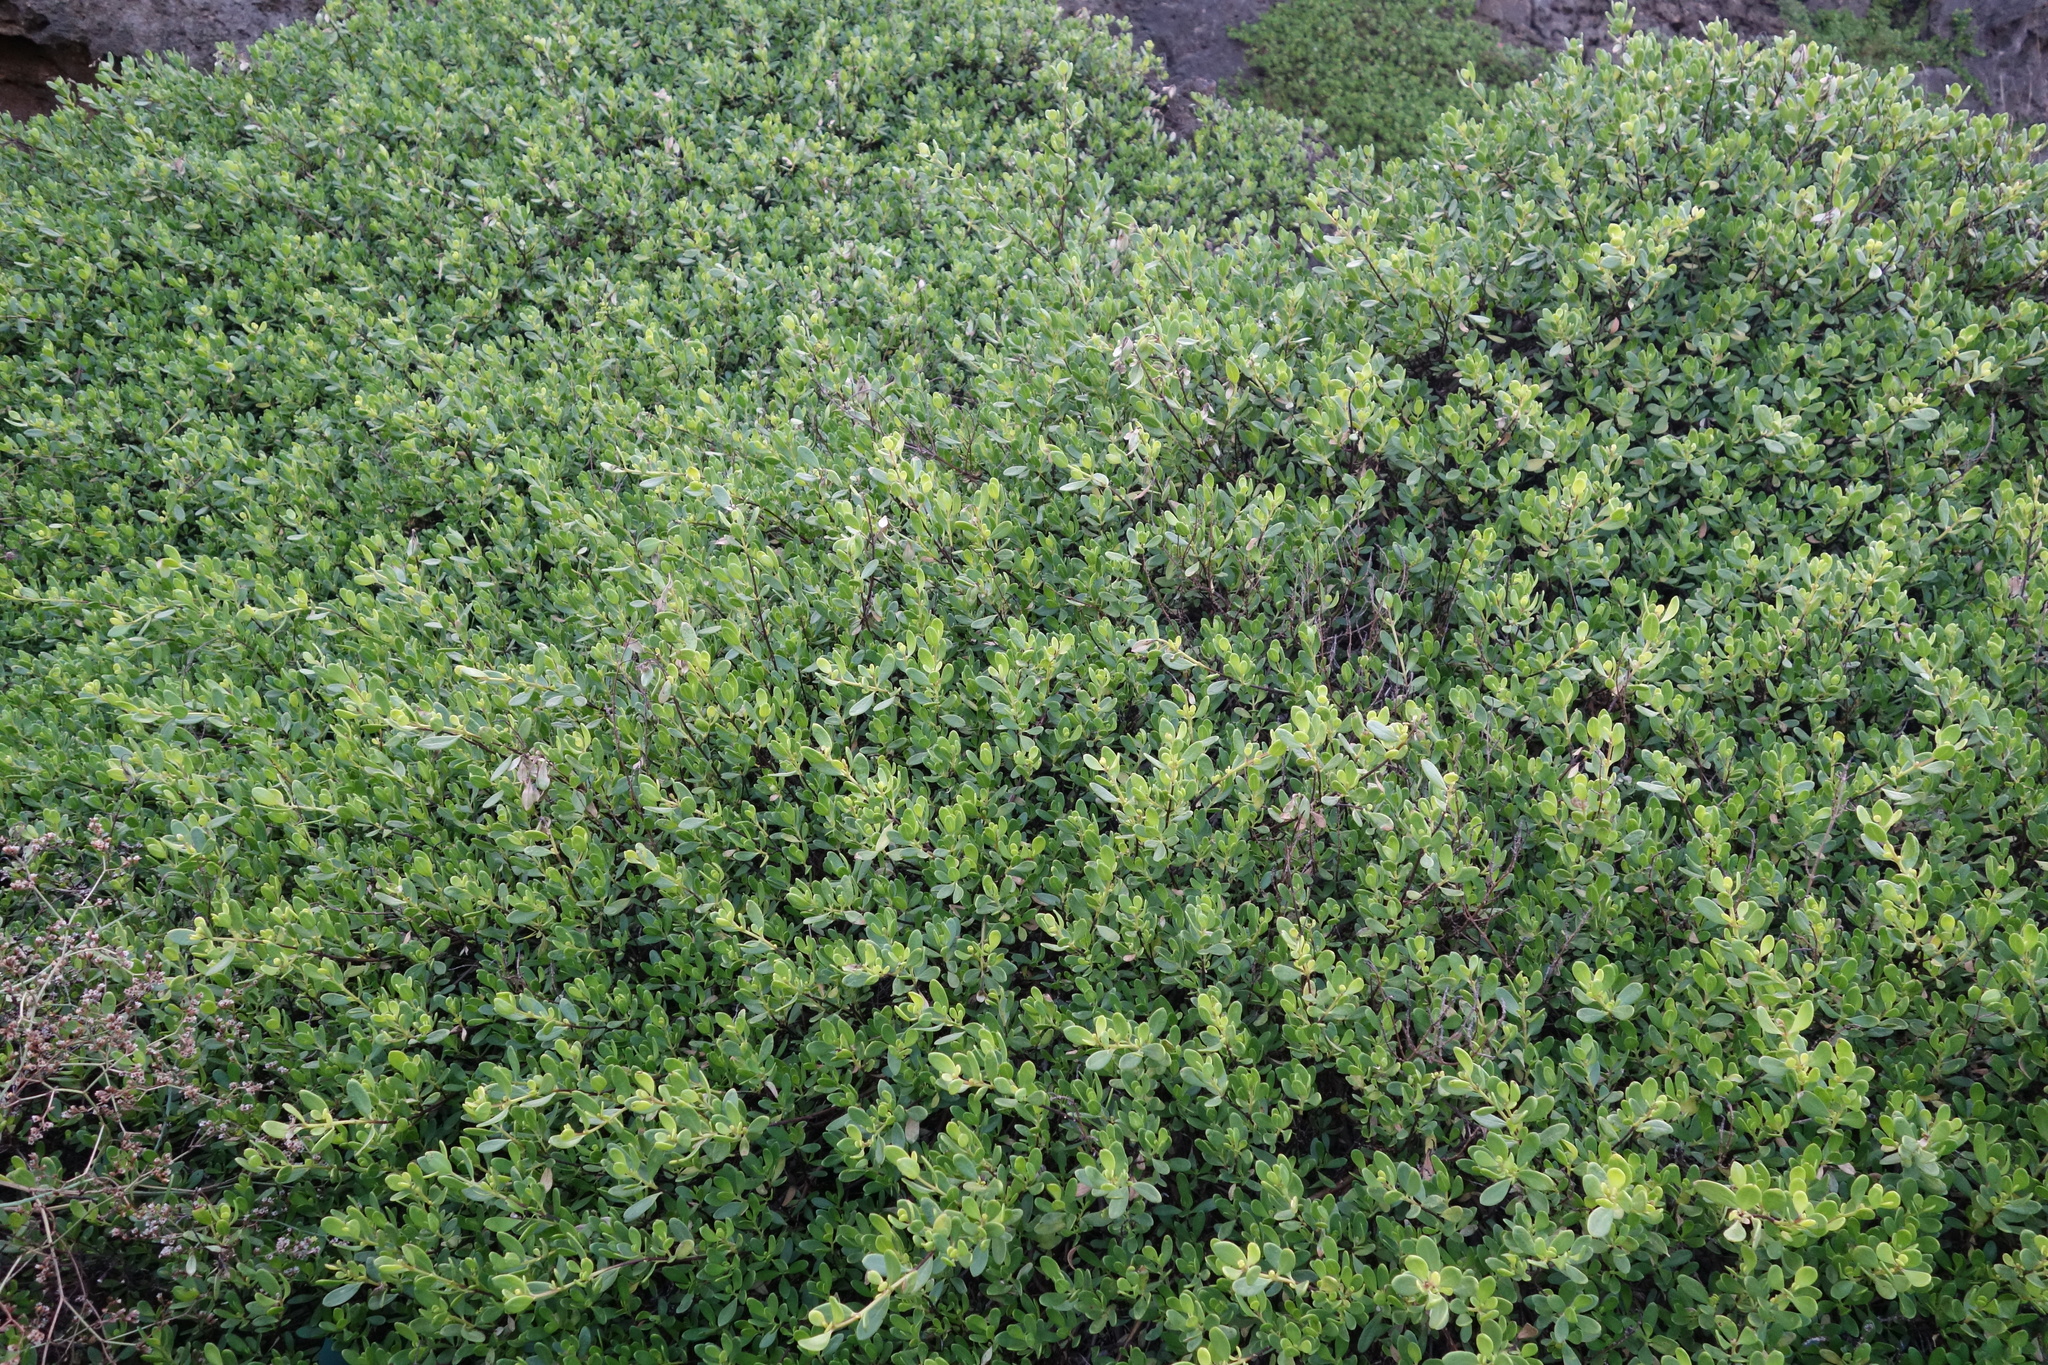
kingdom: Plantae
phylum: Tracheophyta
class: Magnoliopsida
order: Myrtales
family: Lythraceae
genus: Pemphis
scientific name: Pemphis acidula
